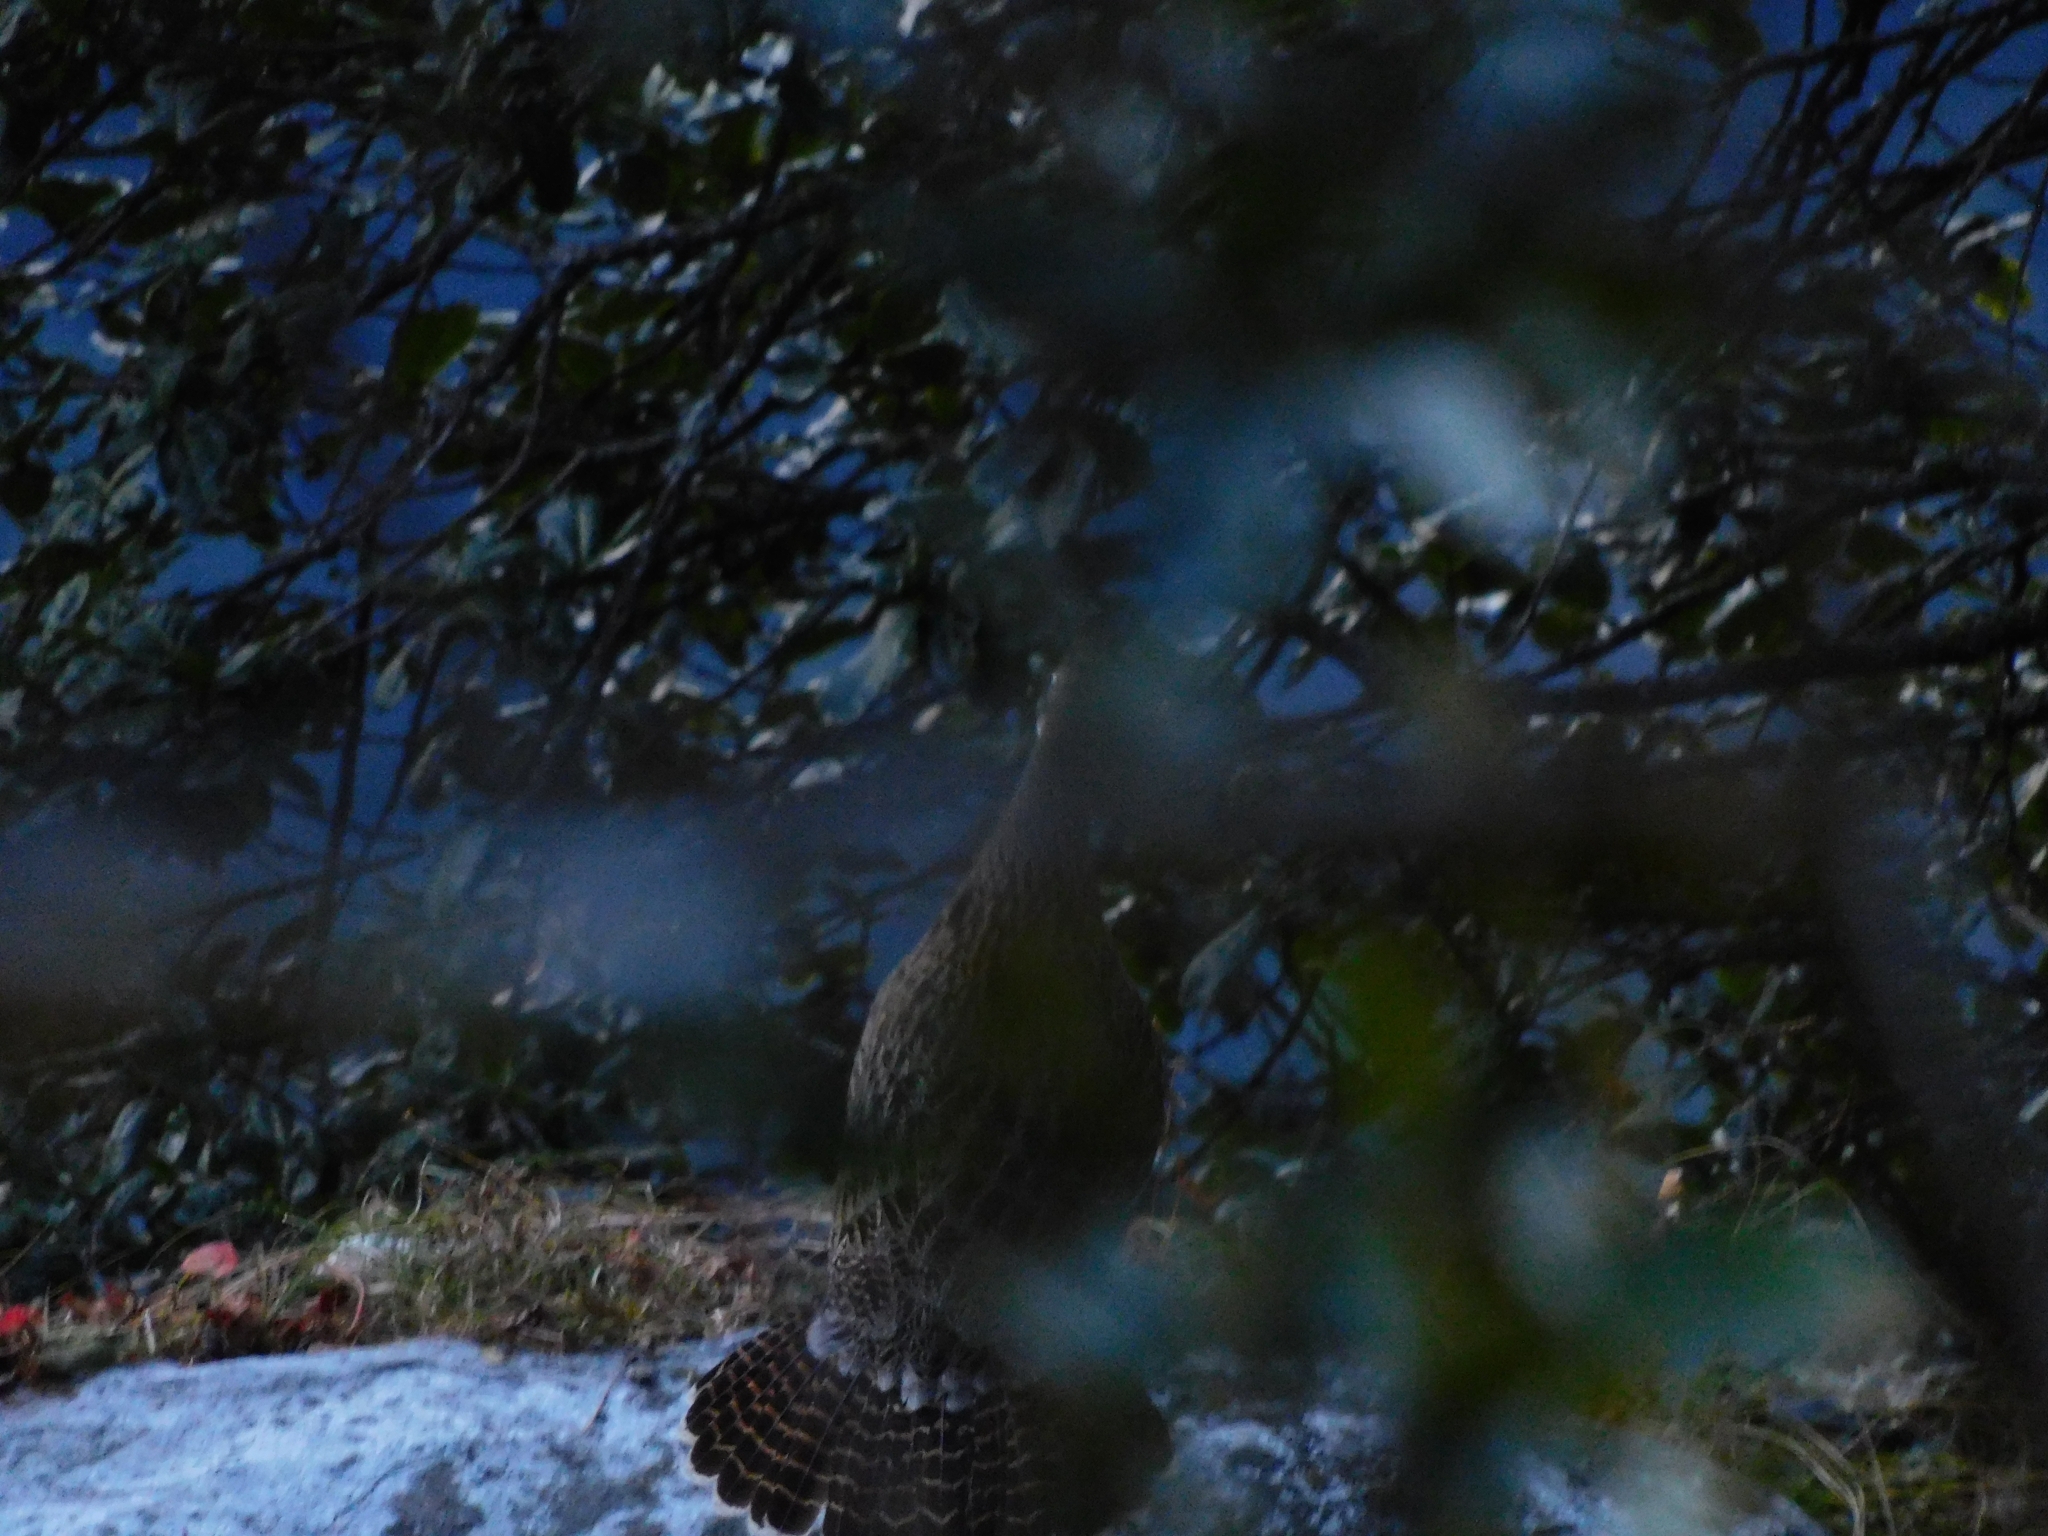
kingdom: Animalia
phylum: Chordata
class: Aves
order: Galliformes
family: Phasianidae
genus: Lophophorus
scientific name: Lophophorus impejanus
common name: Himalayan monal
